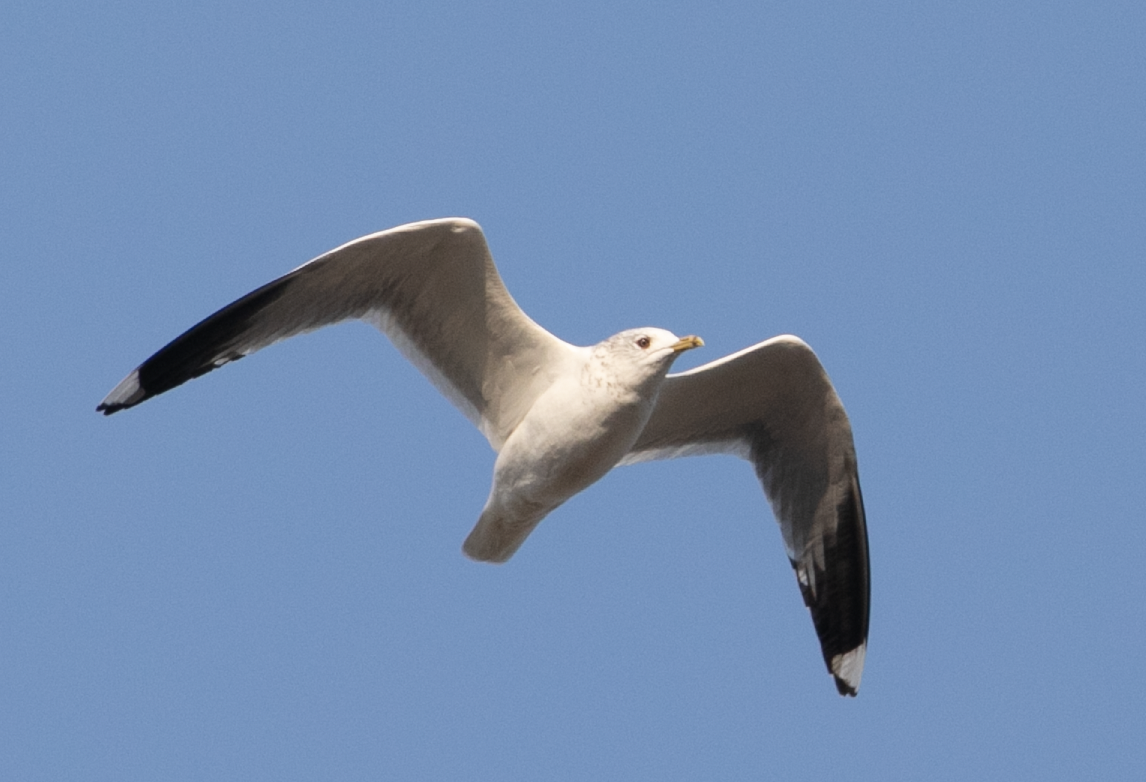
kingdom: Animalia
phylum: Chordata
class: Aves
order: Charadriiformes
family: Laridae
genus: Larus
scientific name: Larus canus
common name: Mew gull
